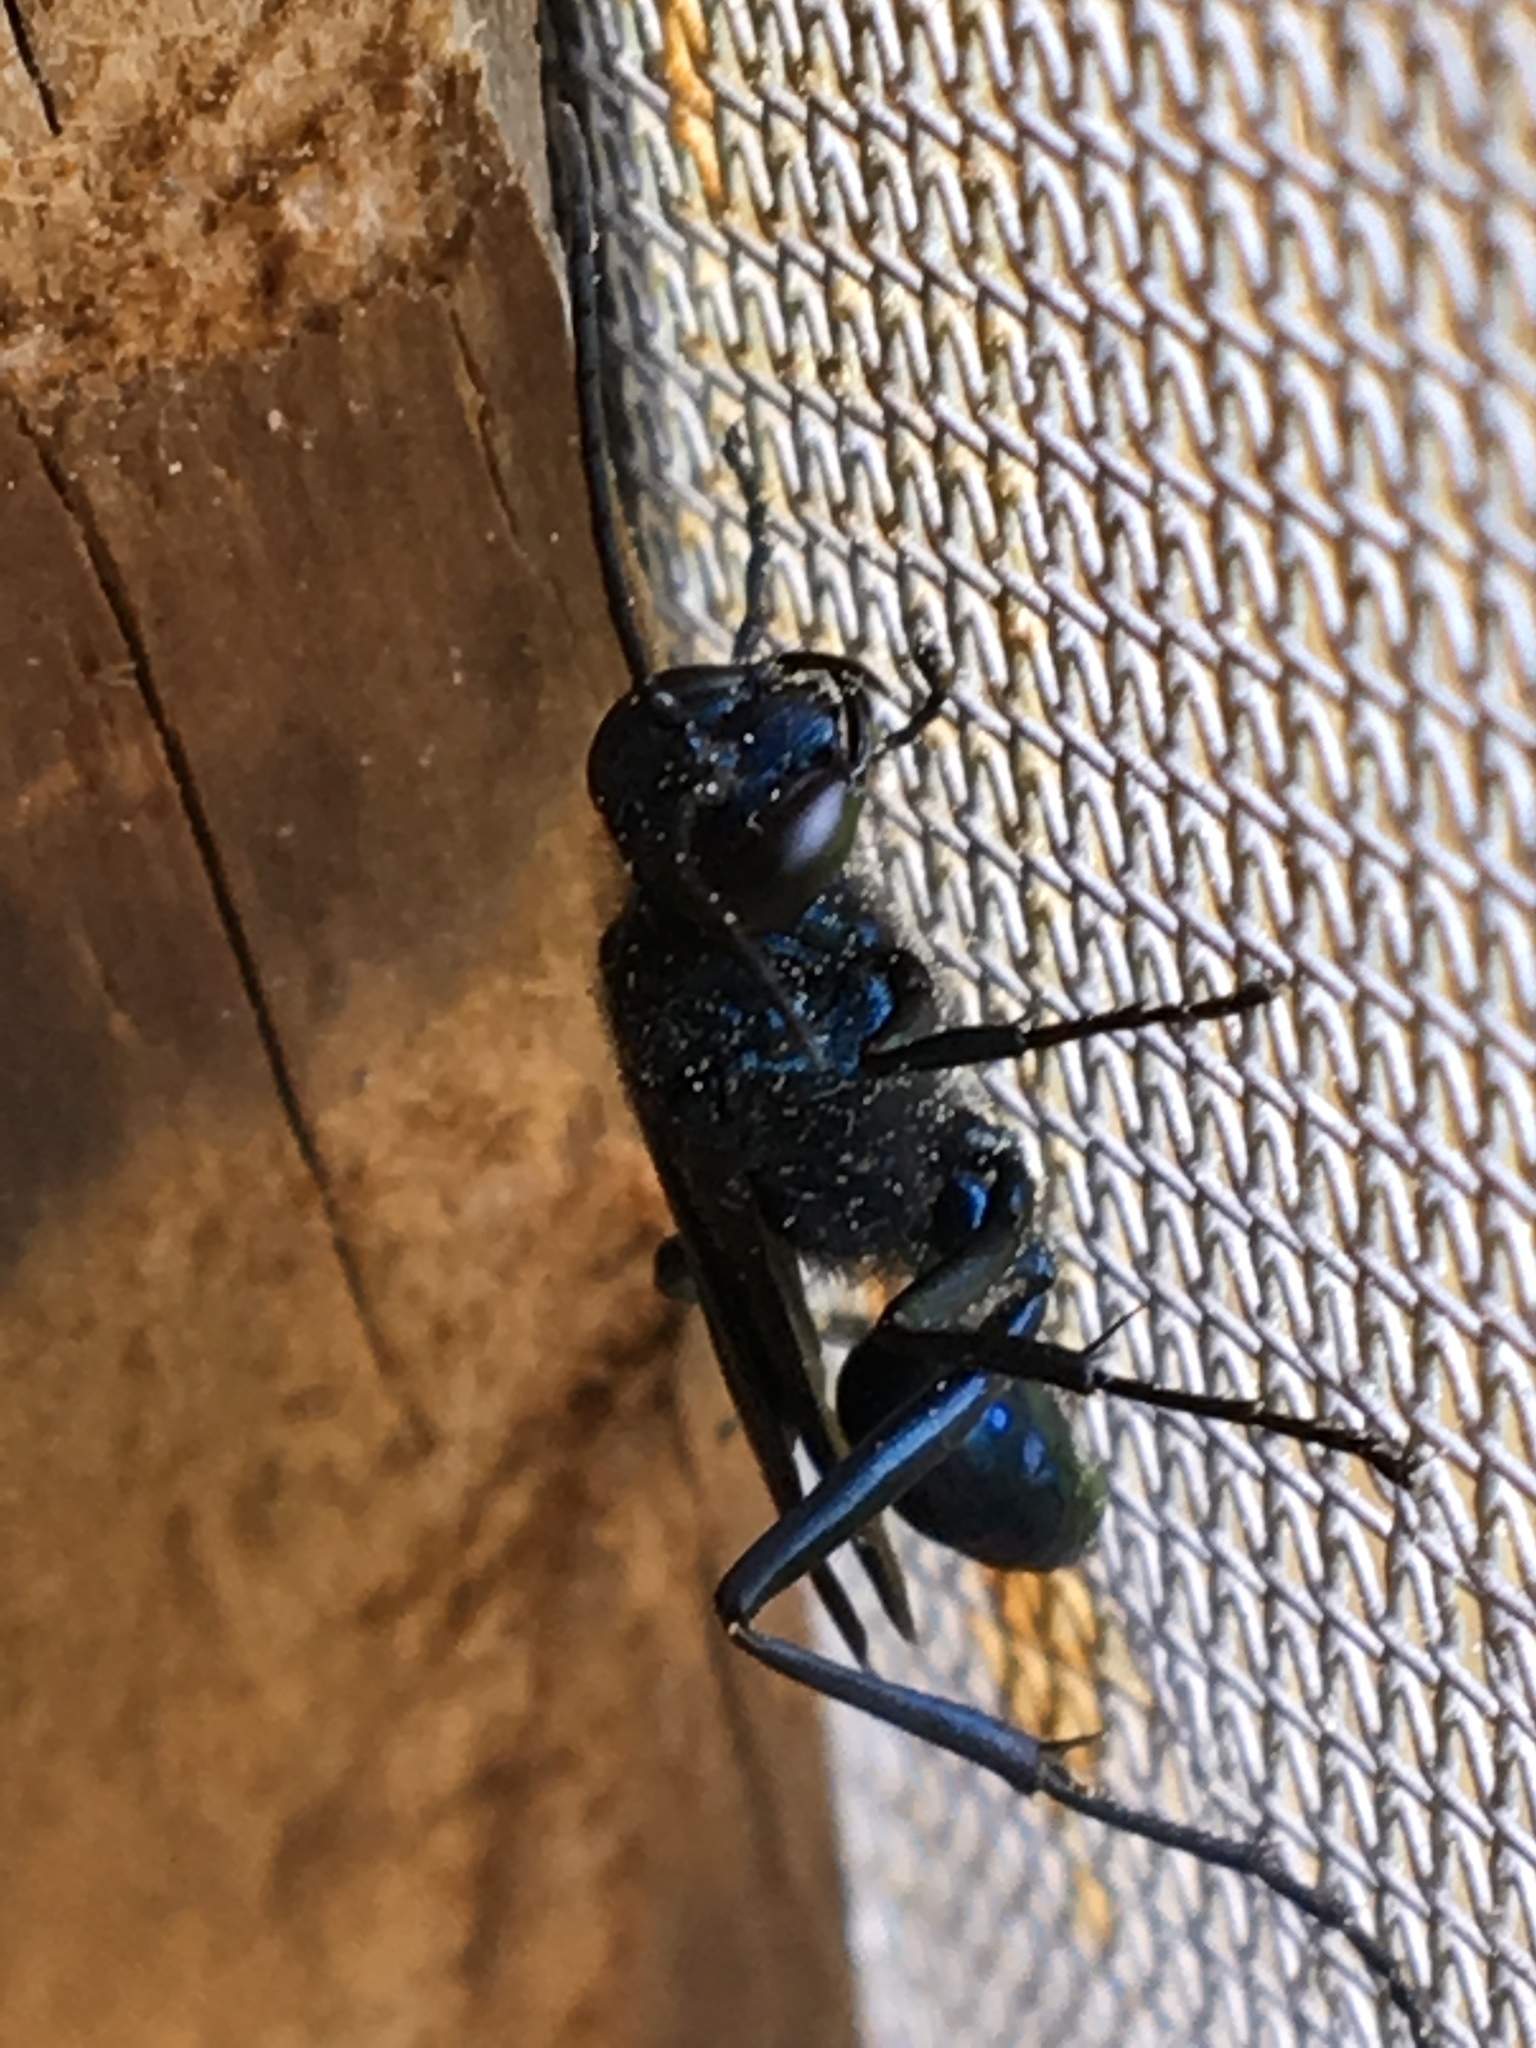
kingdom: Animalia
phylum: Arthropoda
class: Insecta
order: Hymenoptera
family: Sphecidae
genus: Chalybion
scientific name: Chalybion californicum
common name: Mud dauber
